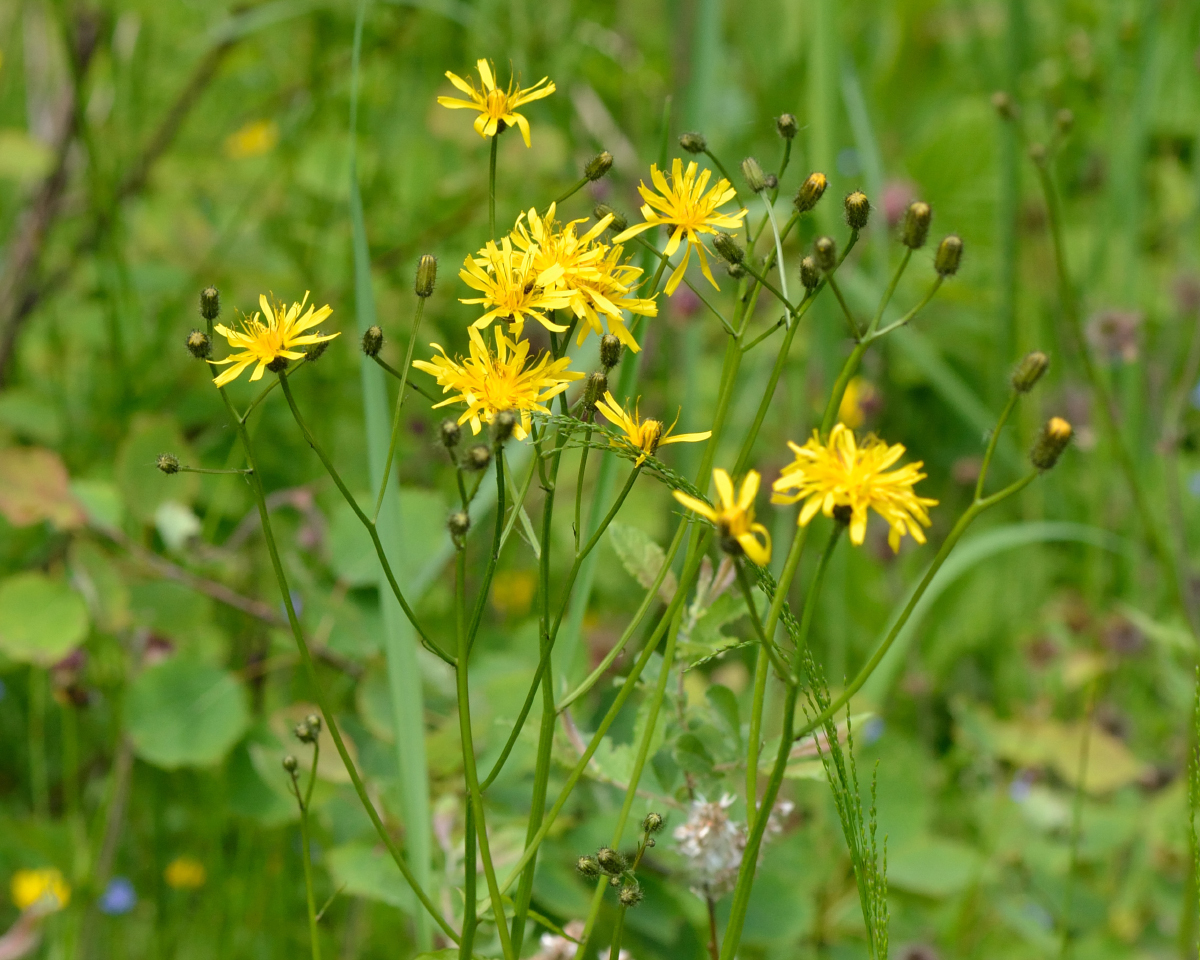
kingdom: Plantae
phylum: Tracheophyta
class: Magnoliopsida
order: Asterales
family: Asteraceae
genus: Crepis
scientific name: Crepis paludosa
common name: Marsh hawk's-beard
